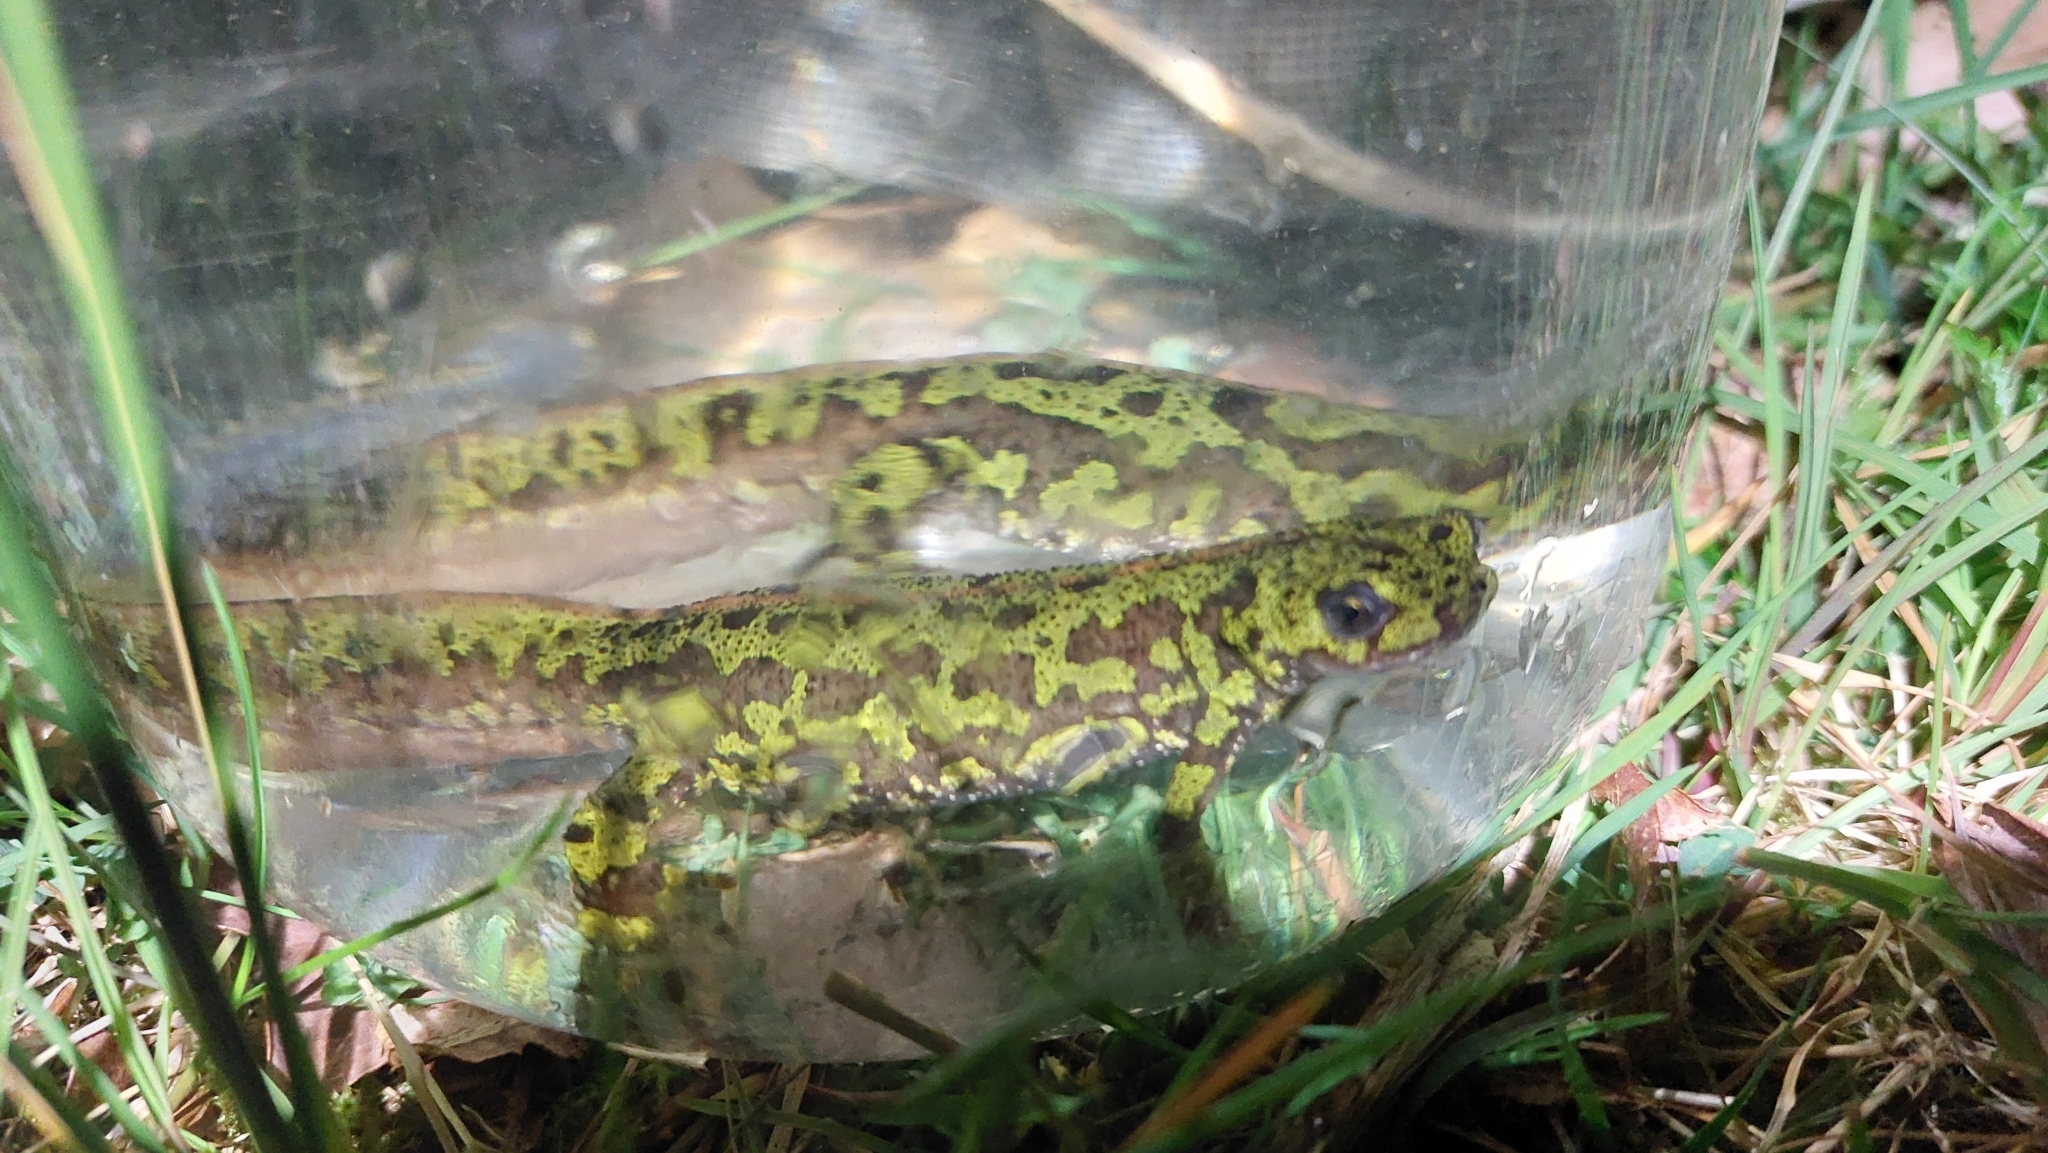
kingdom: Animalia
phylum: Chordata
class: Amphibia
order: Caudata
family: Salamandridae
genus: Triturus
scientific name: Triturus marmoratus
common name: Marbled newt
